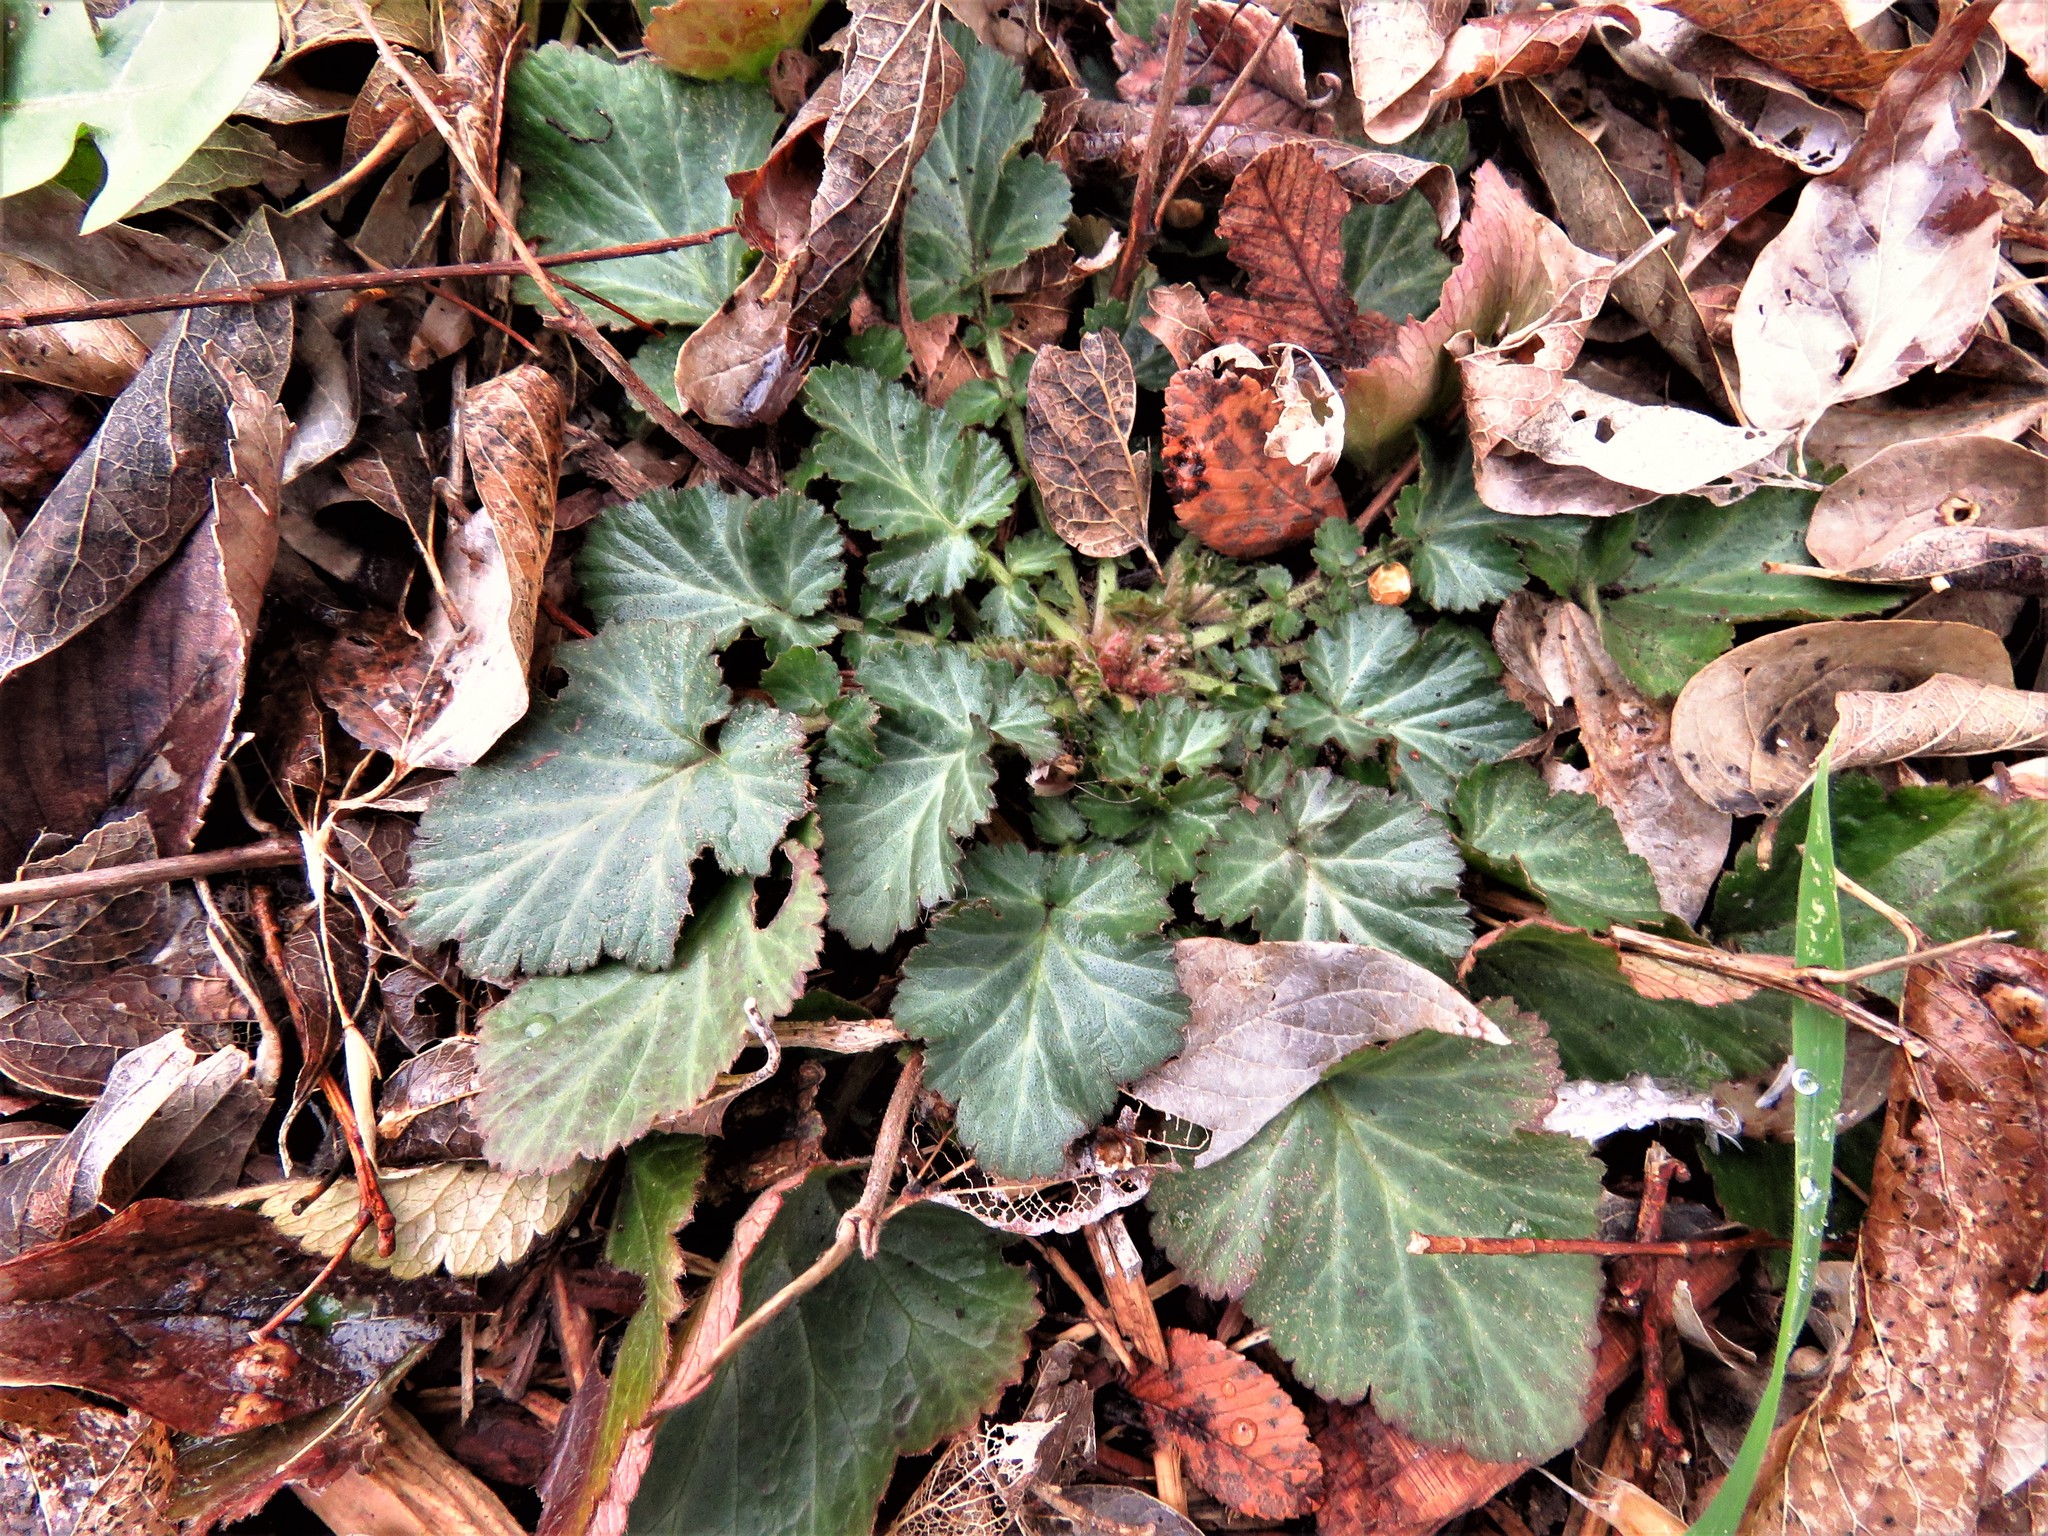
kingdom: Plantae
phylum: Tracheophyta
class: Magnoliopsida
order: Rosales
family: Rosaceae
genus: Geum
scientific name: Geum canadense
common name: White avens
